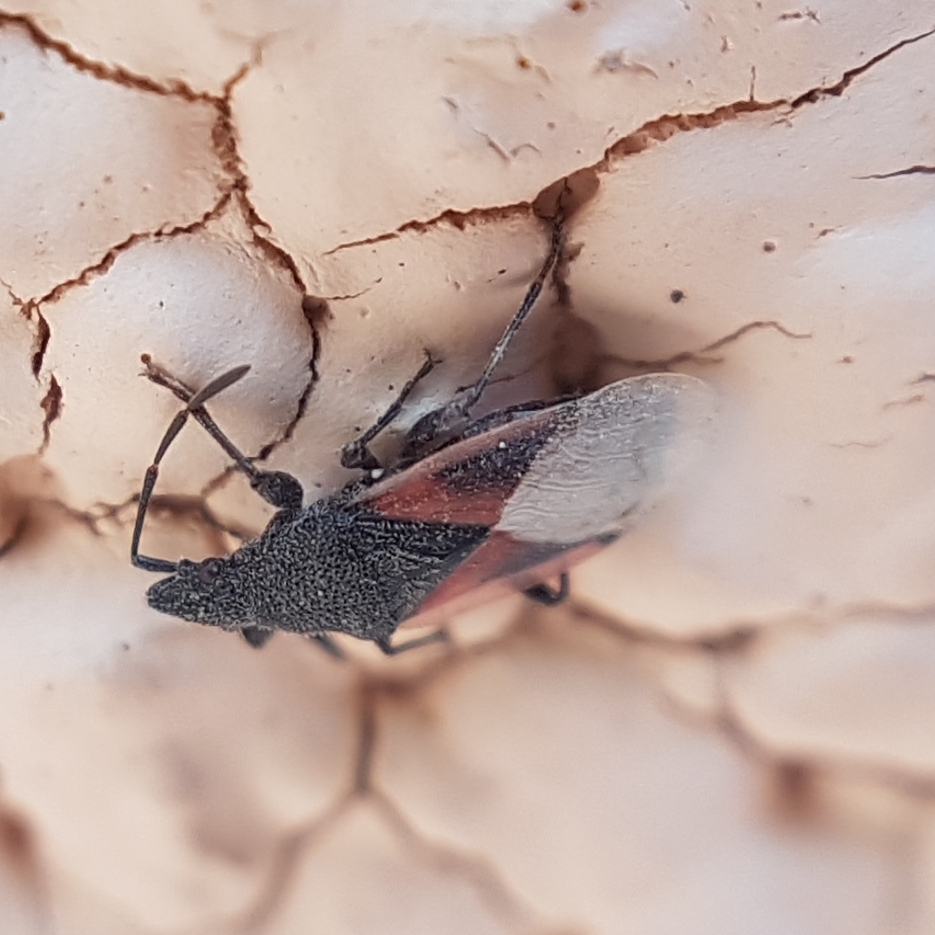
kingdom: Animalia
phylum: Arthropoda
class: Insecta
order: Hemiptera
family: Oxycarenidae
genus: Oxycarenus
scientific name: Oxycarenus lavaterae
